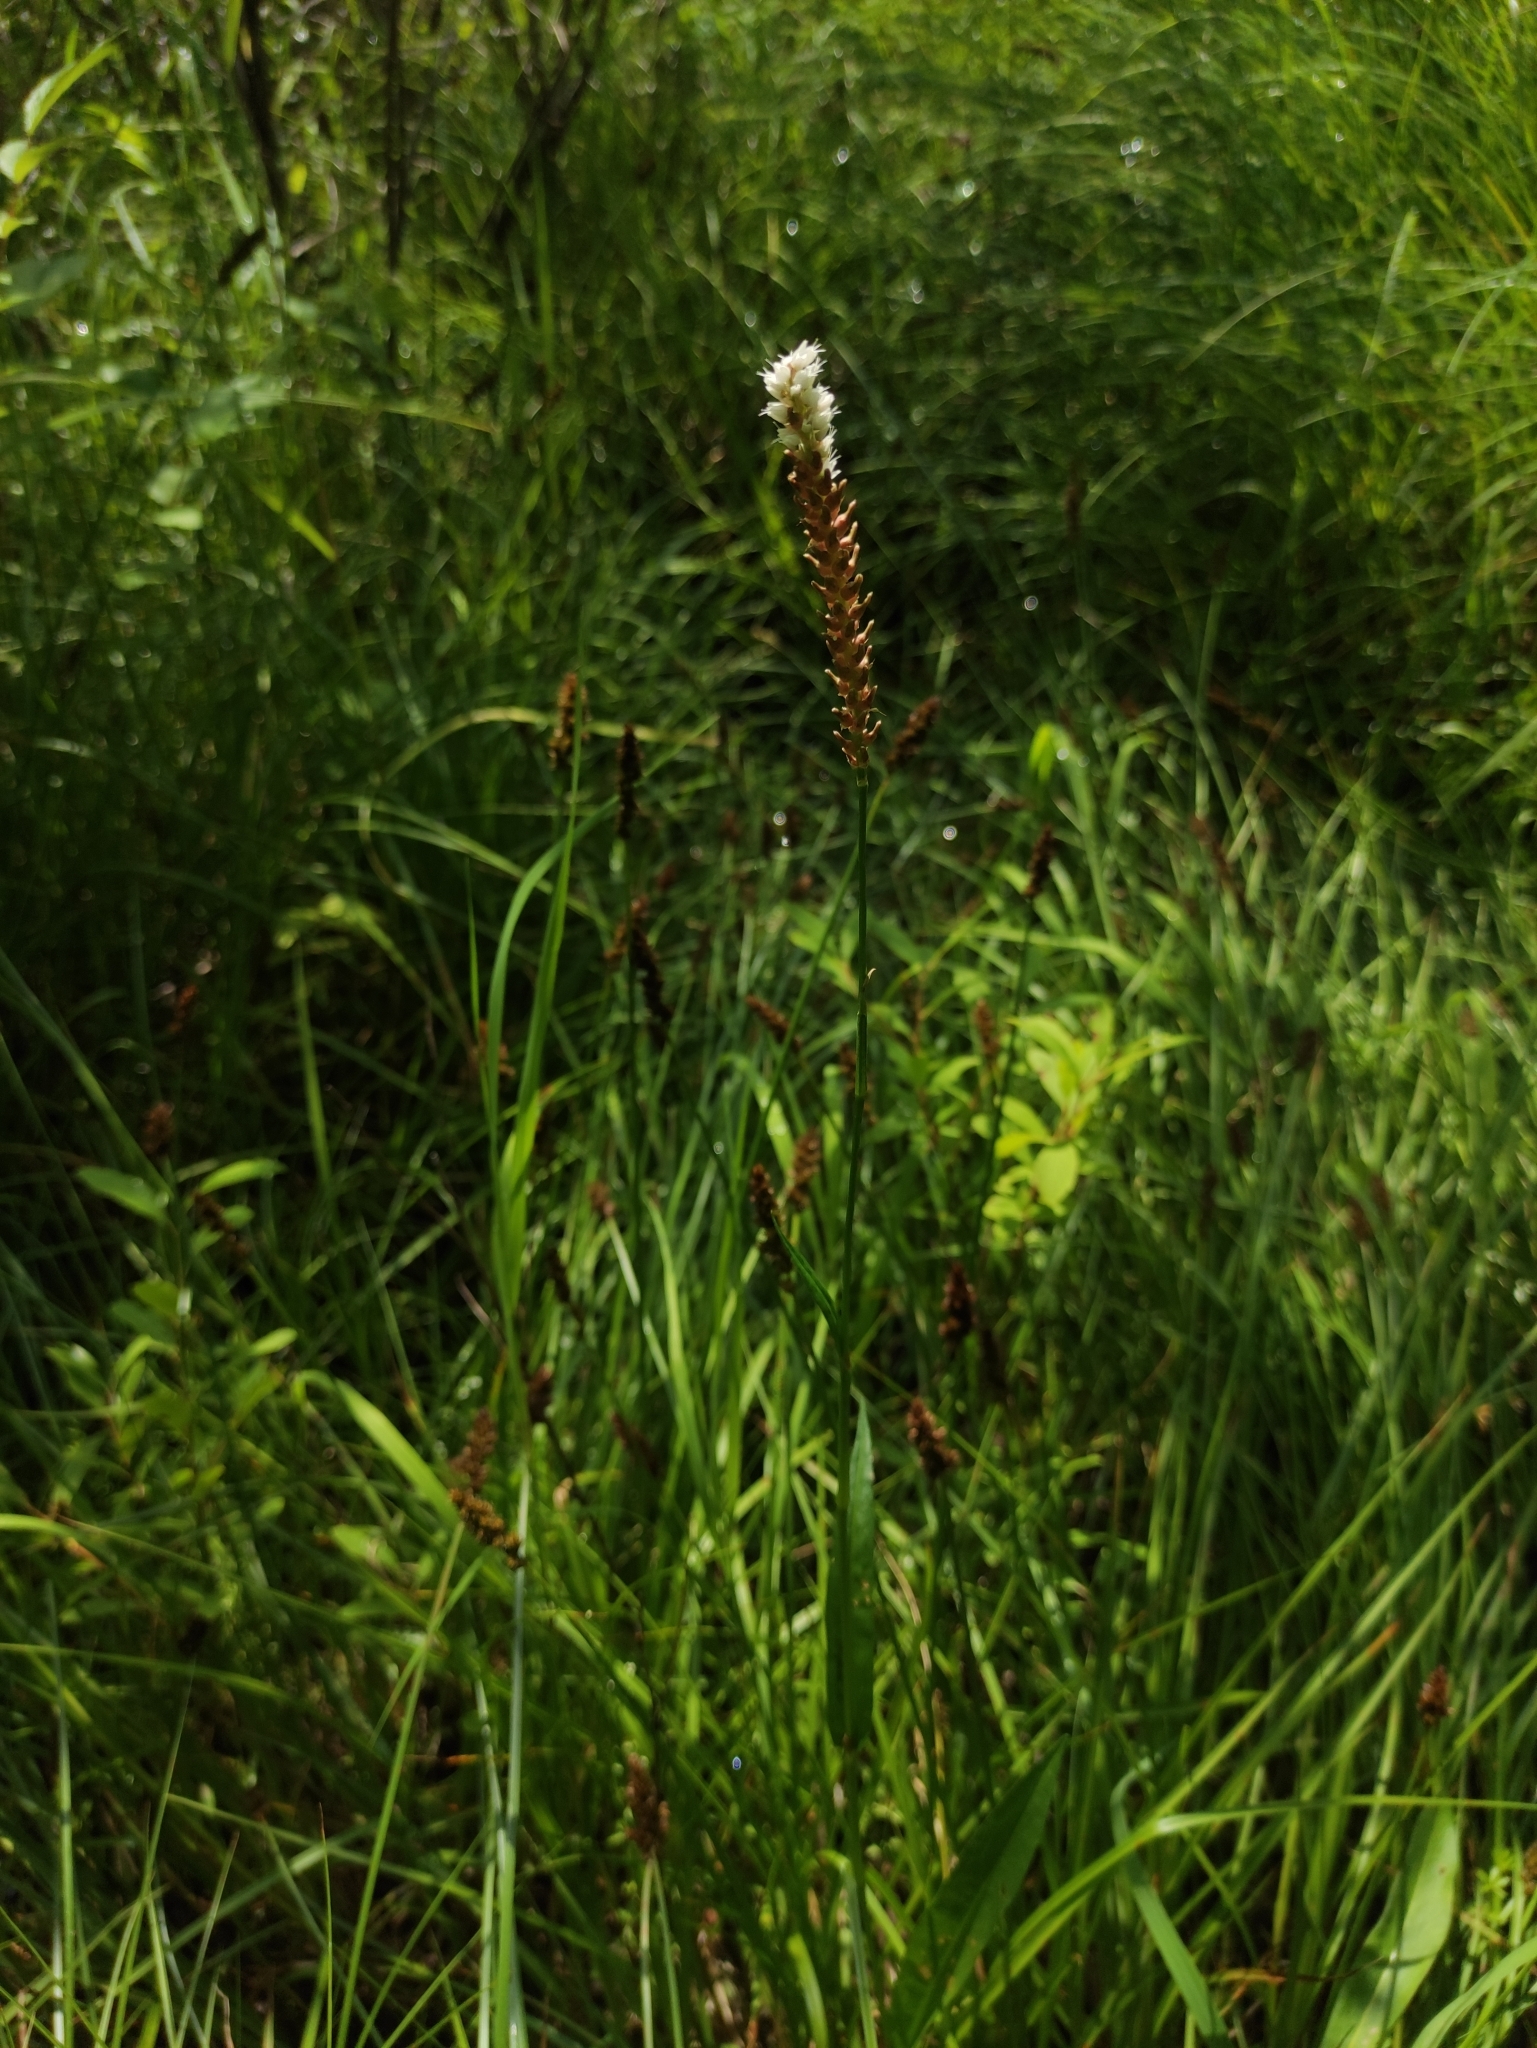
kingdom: Plantae
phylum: Tracheophyta
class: Magnoliopsida
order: Caryophyllales
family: Polygonaceae
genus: Bistorta
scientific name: Bistorta vivipara
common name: Alpine bistort
